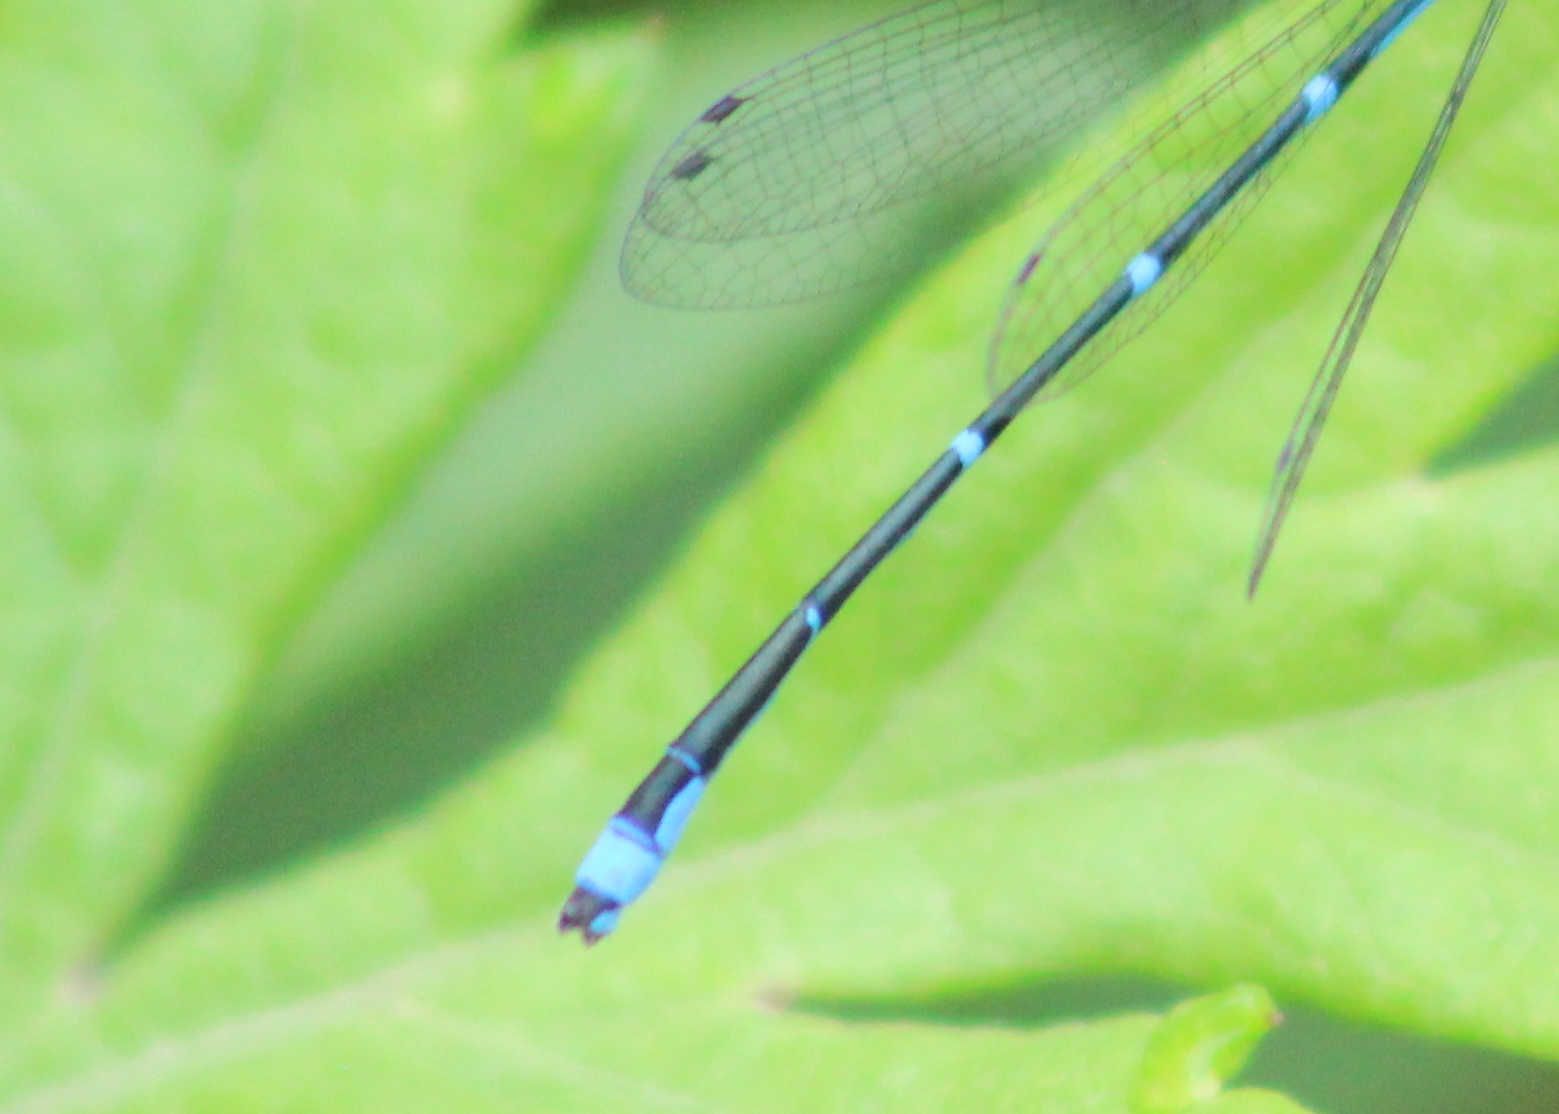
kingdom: Animalia
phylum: Arthropoda
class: Insecta
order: Odonata
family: Coenagrionidae
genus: Enallagma
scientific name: Enallagma exsulans
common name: Stream bluet
